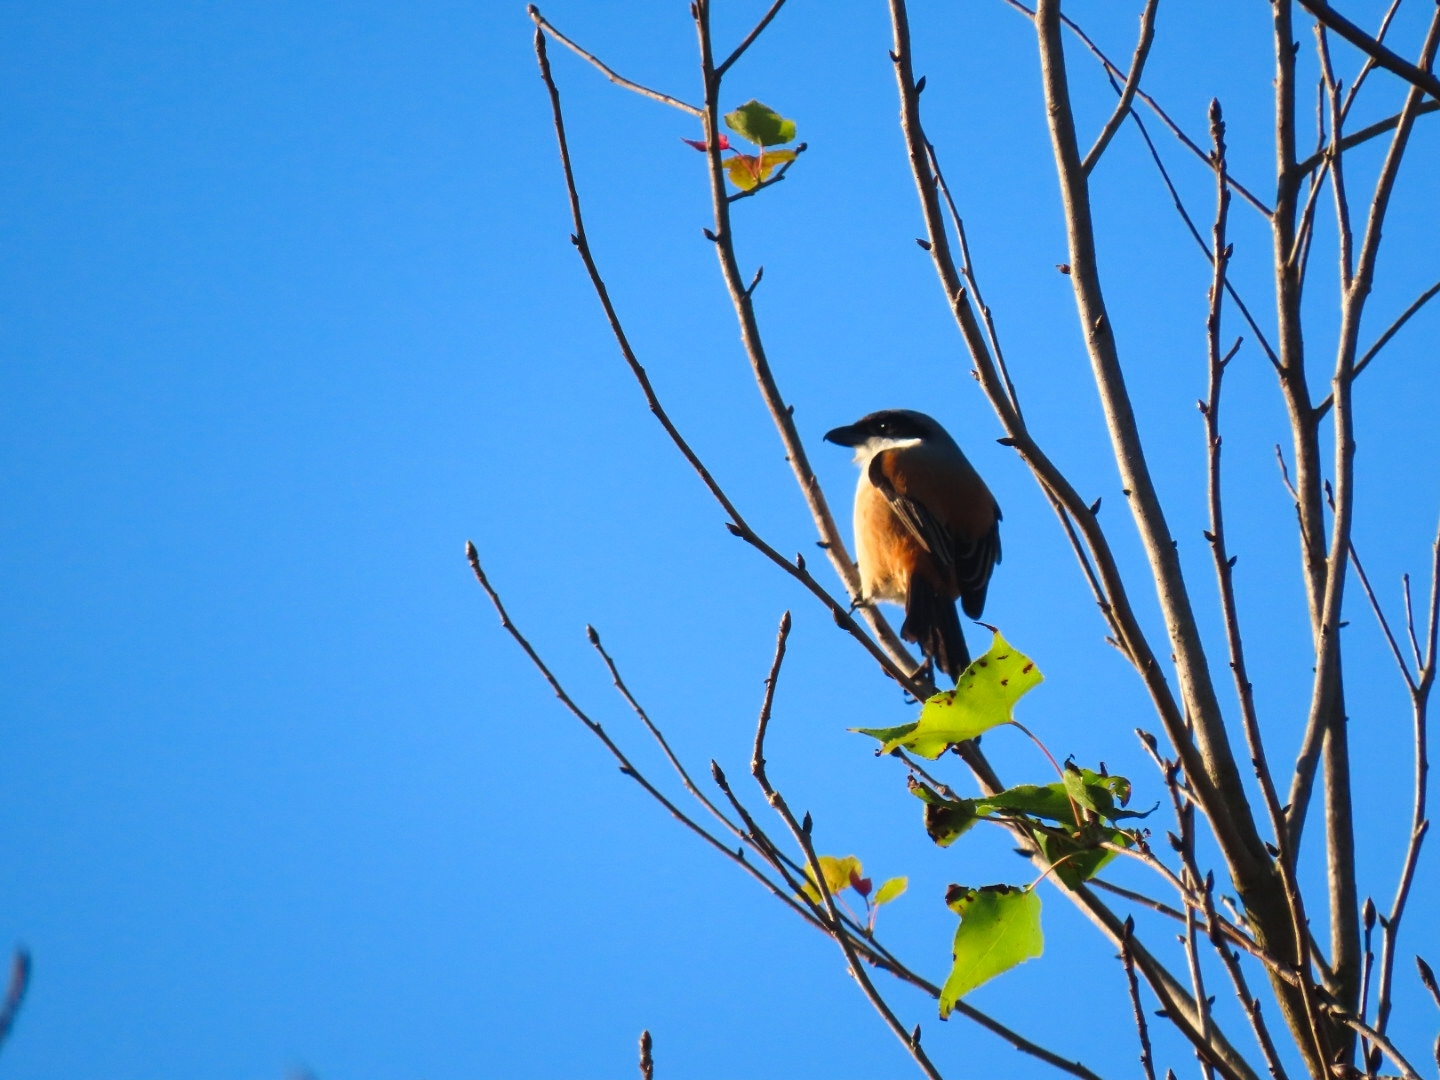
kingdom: Animalia
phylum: Chordata
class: Aves
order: Passeriformes
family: Laniidae
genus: Lanius
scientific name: Lanius cristatus
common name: Brown shrike
